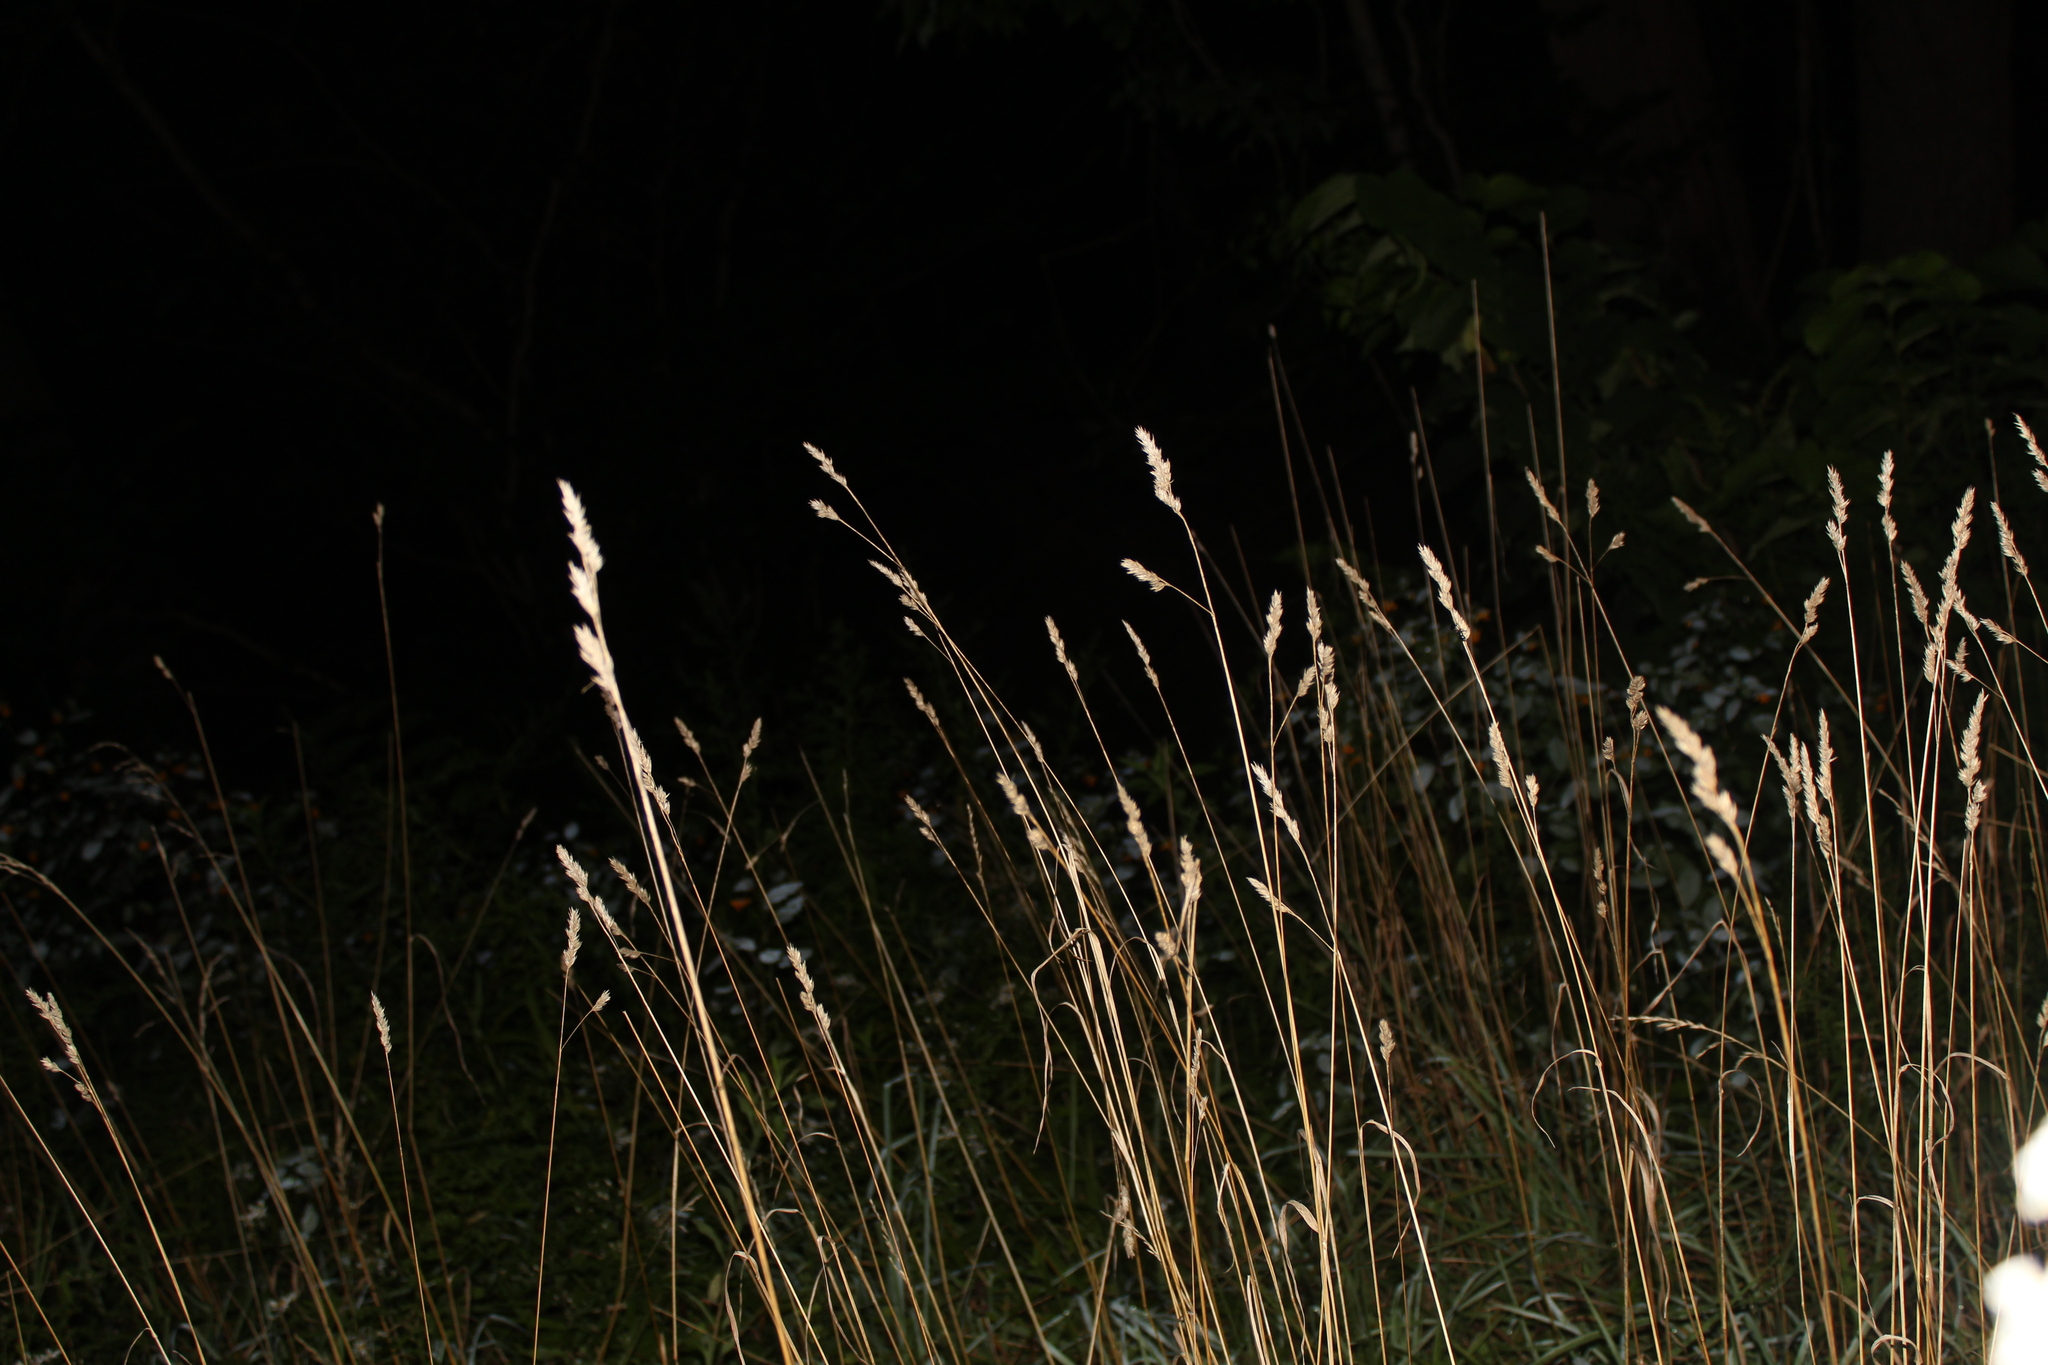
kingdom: Plantae
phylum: Tracheophyta
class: Liliopsida
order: Poales
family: Poaceae
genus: Dactylis
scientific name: Dactylis glomerata
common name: Orchardgrass
